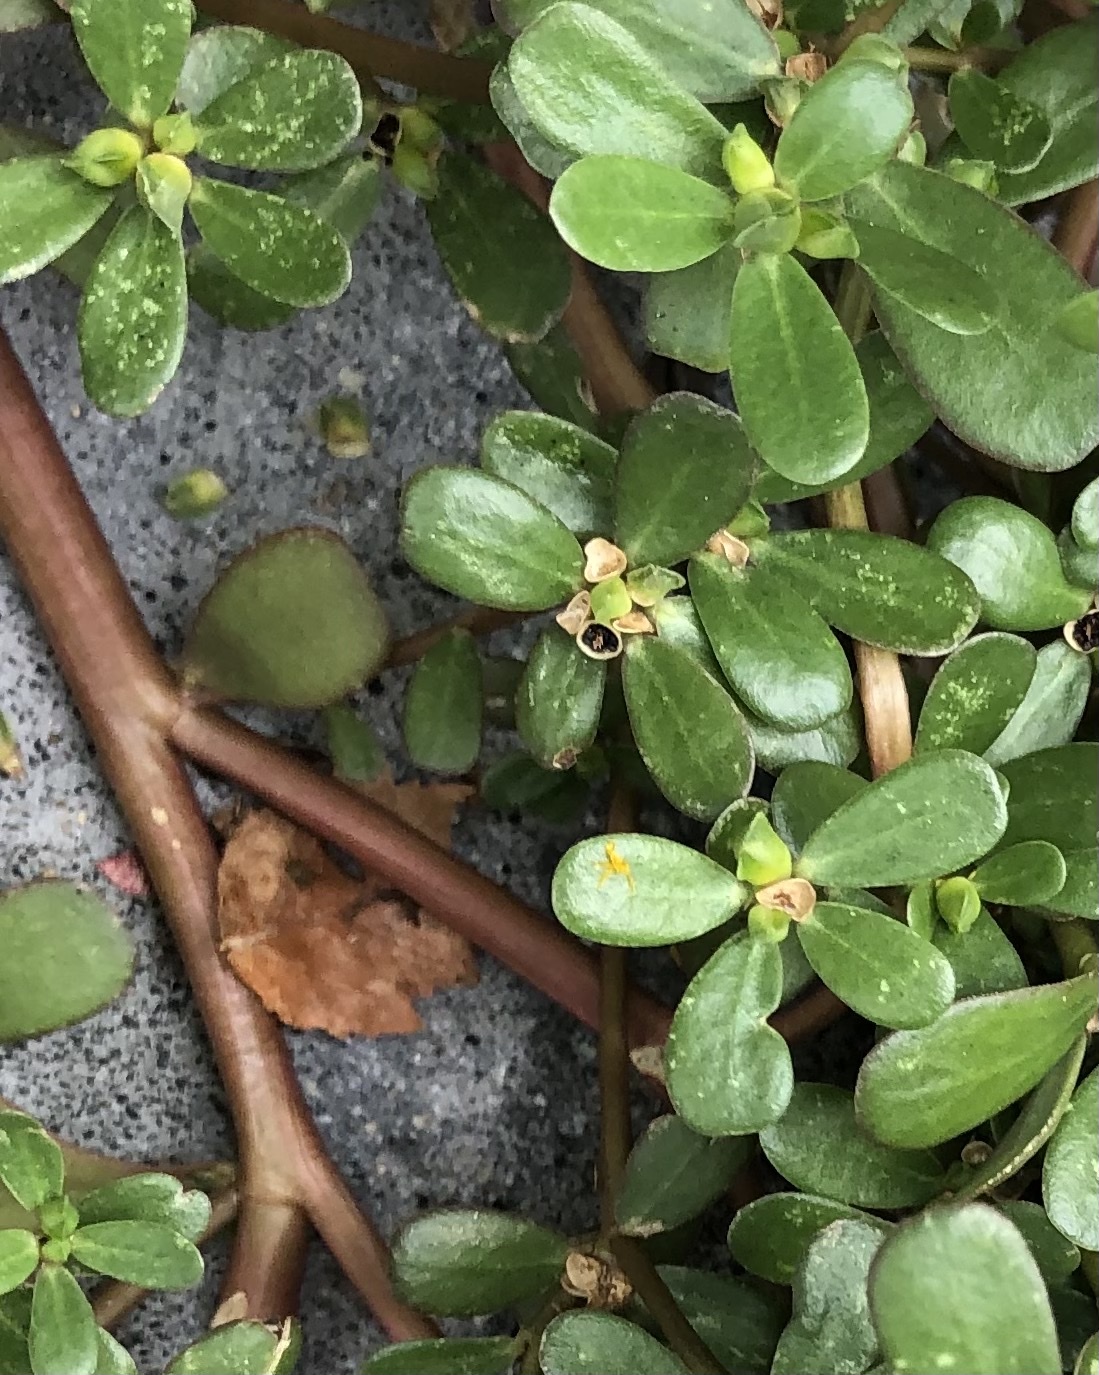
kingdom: Plantae
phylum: Tracheophyta
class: Magnoliopsida
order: Caryophyllales
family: Portulacaceae
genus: Portulaca
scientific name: Portulaca oleracea
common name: Common purslane
